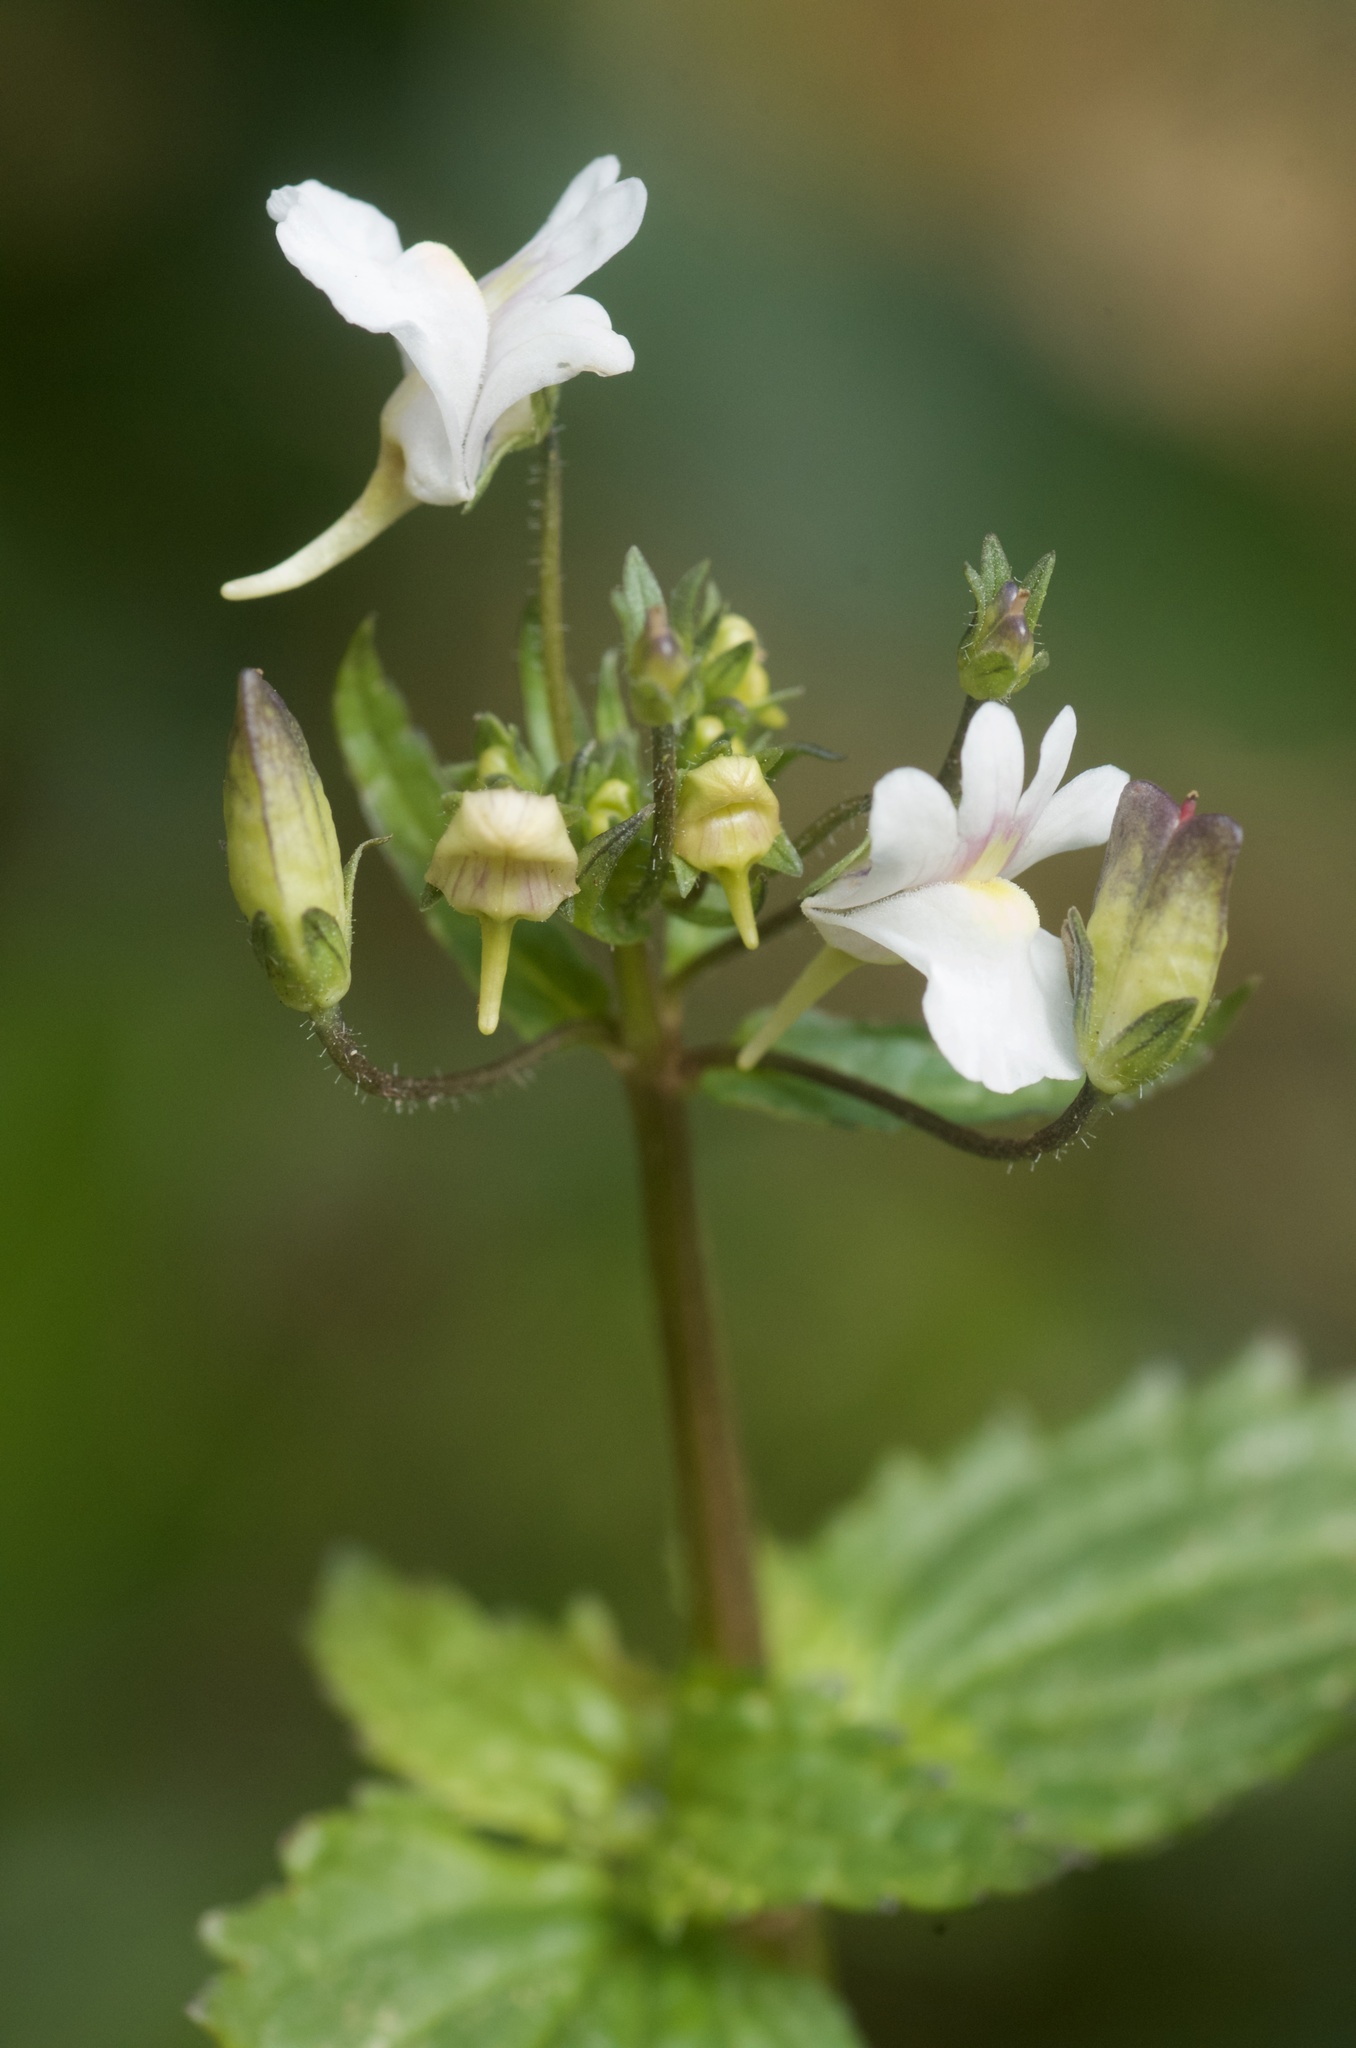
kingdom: Plantae
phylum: Tracheophyta
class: Magnoliopsida
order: Lamiales
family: Scrophulariaceae
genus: Nemesia
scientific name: Nemesia floribunda
